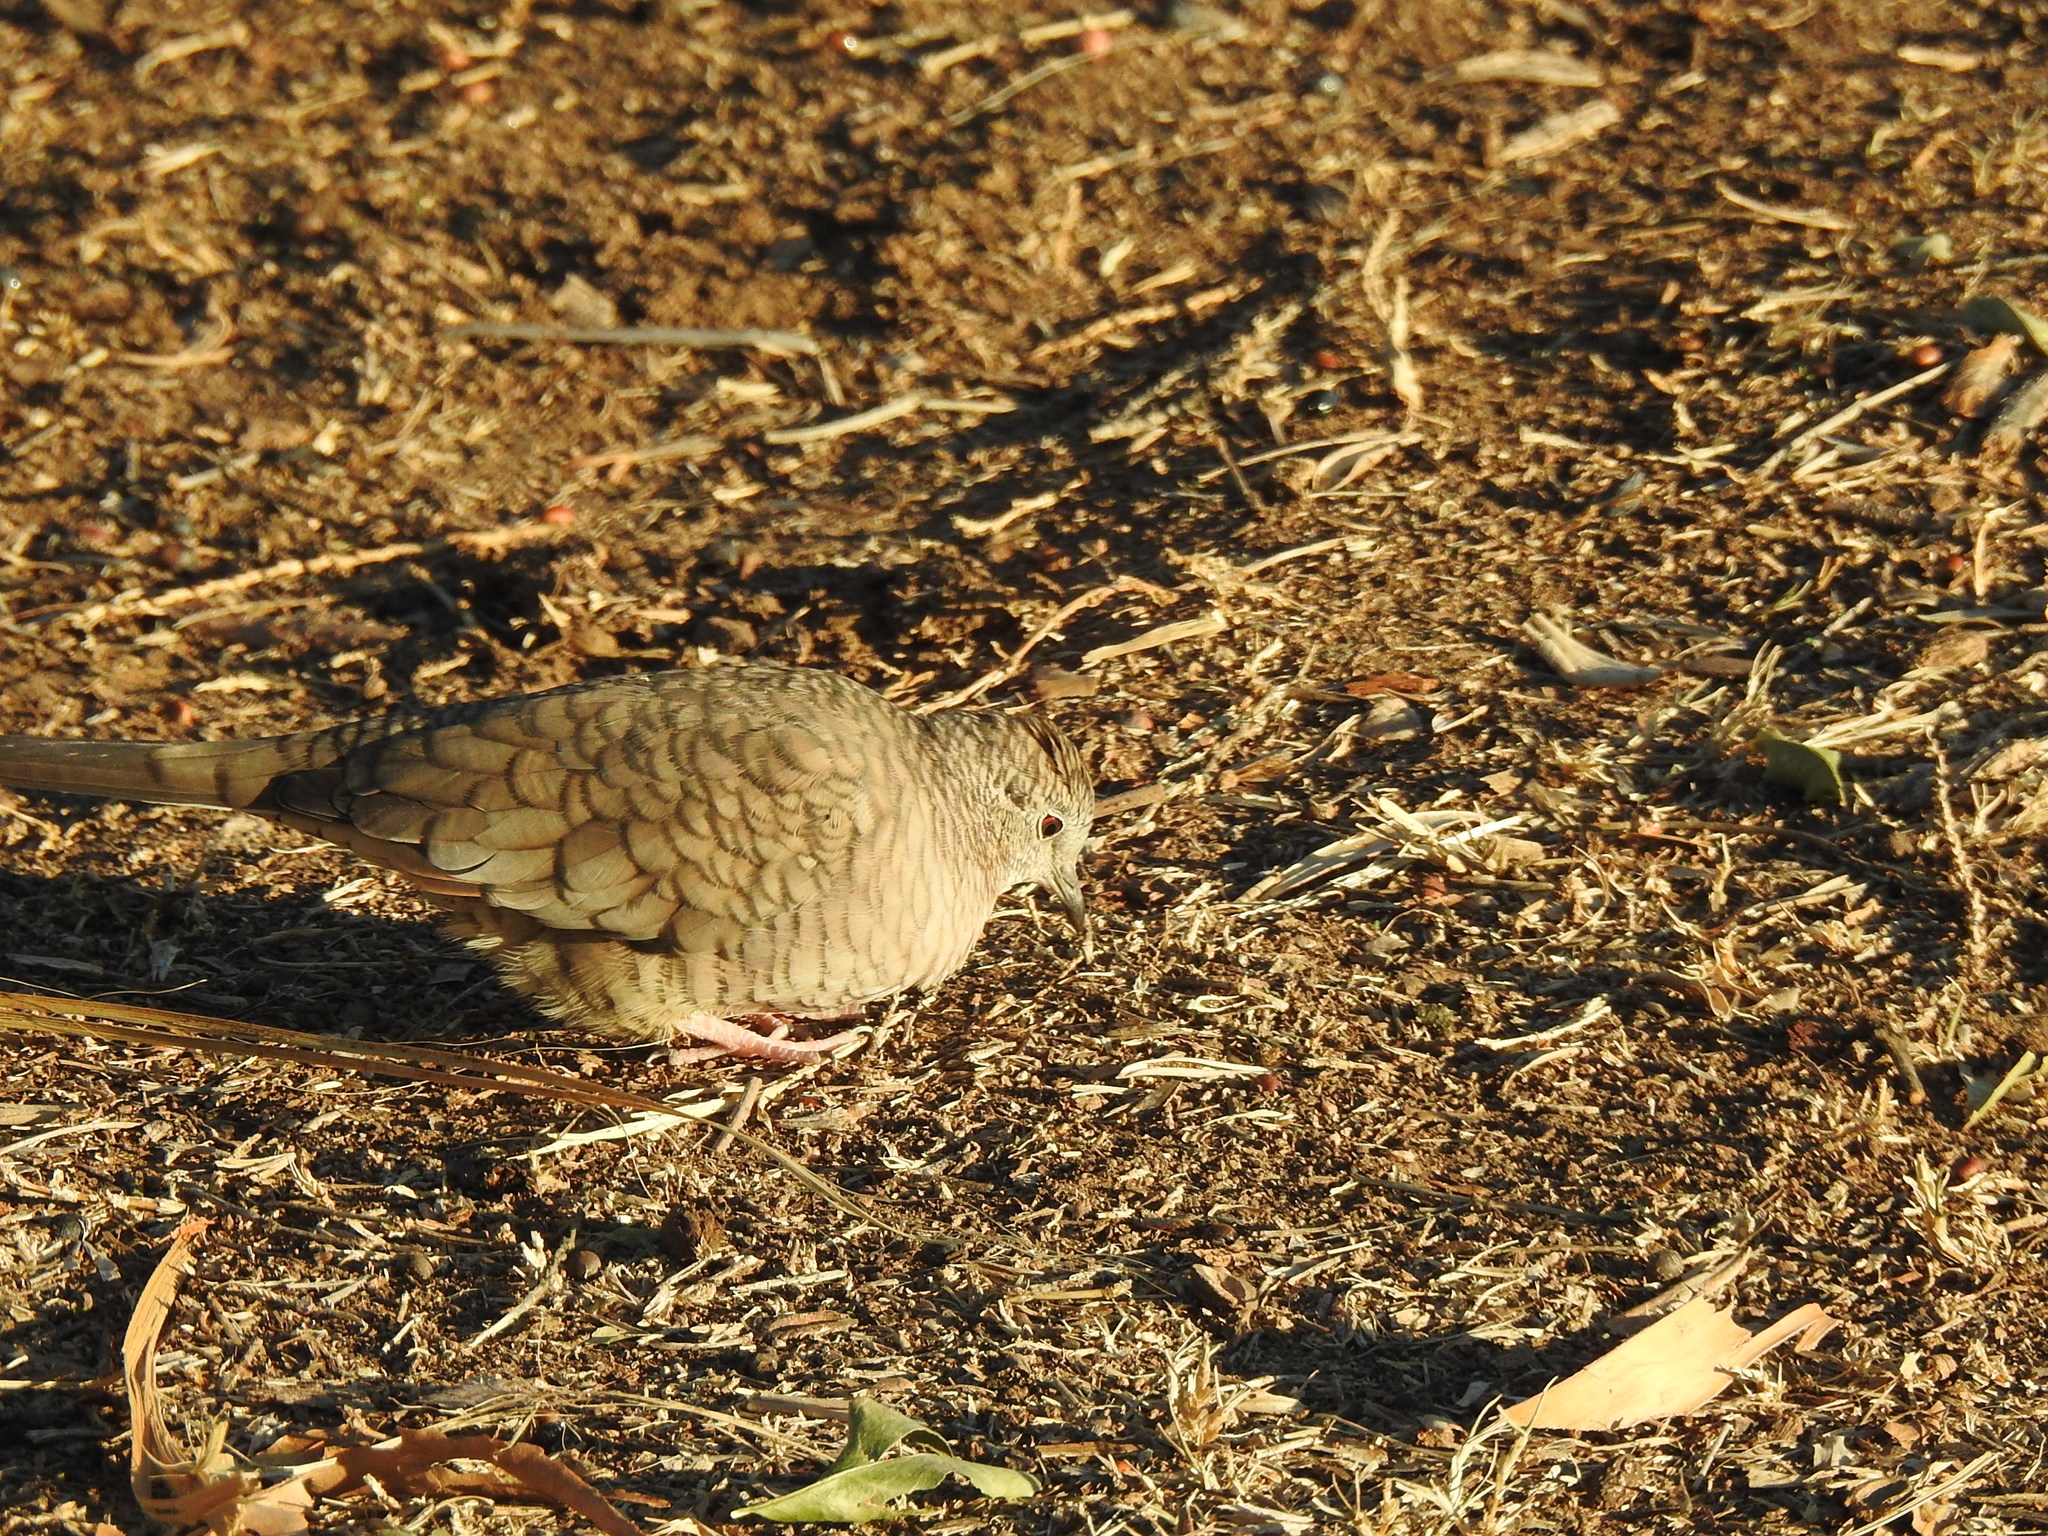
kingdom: Animalia
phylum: Chordata
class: Aves
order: Columbiformes
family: Columbidae
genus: Columbina
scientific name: Columbina inca
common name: Inca dove
